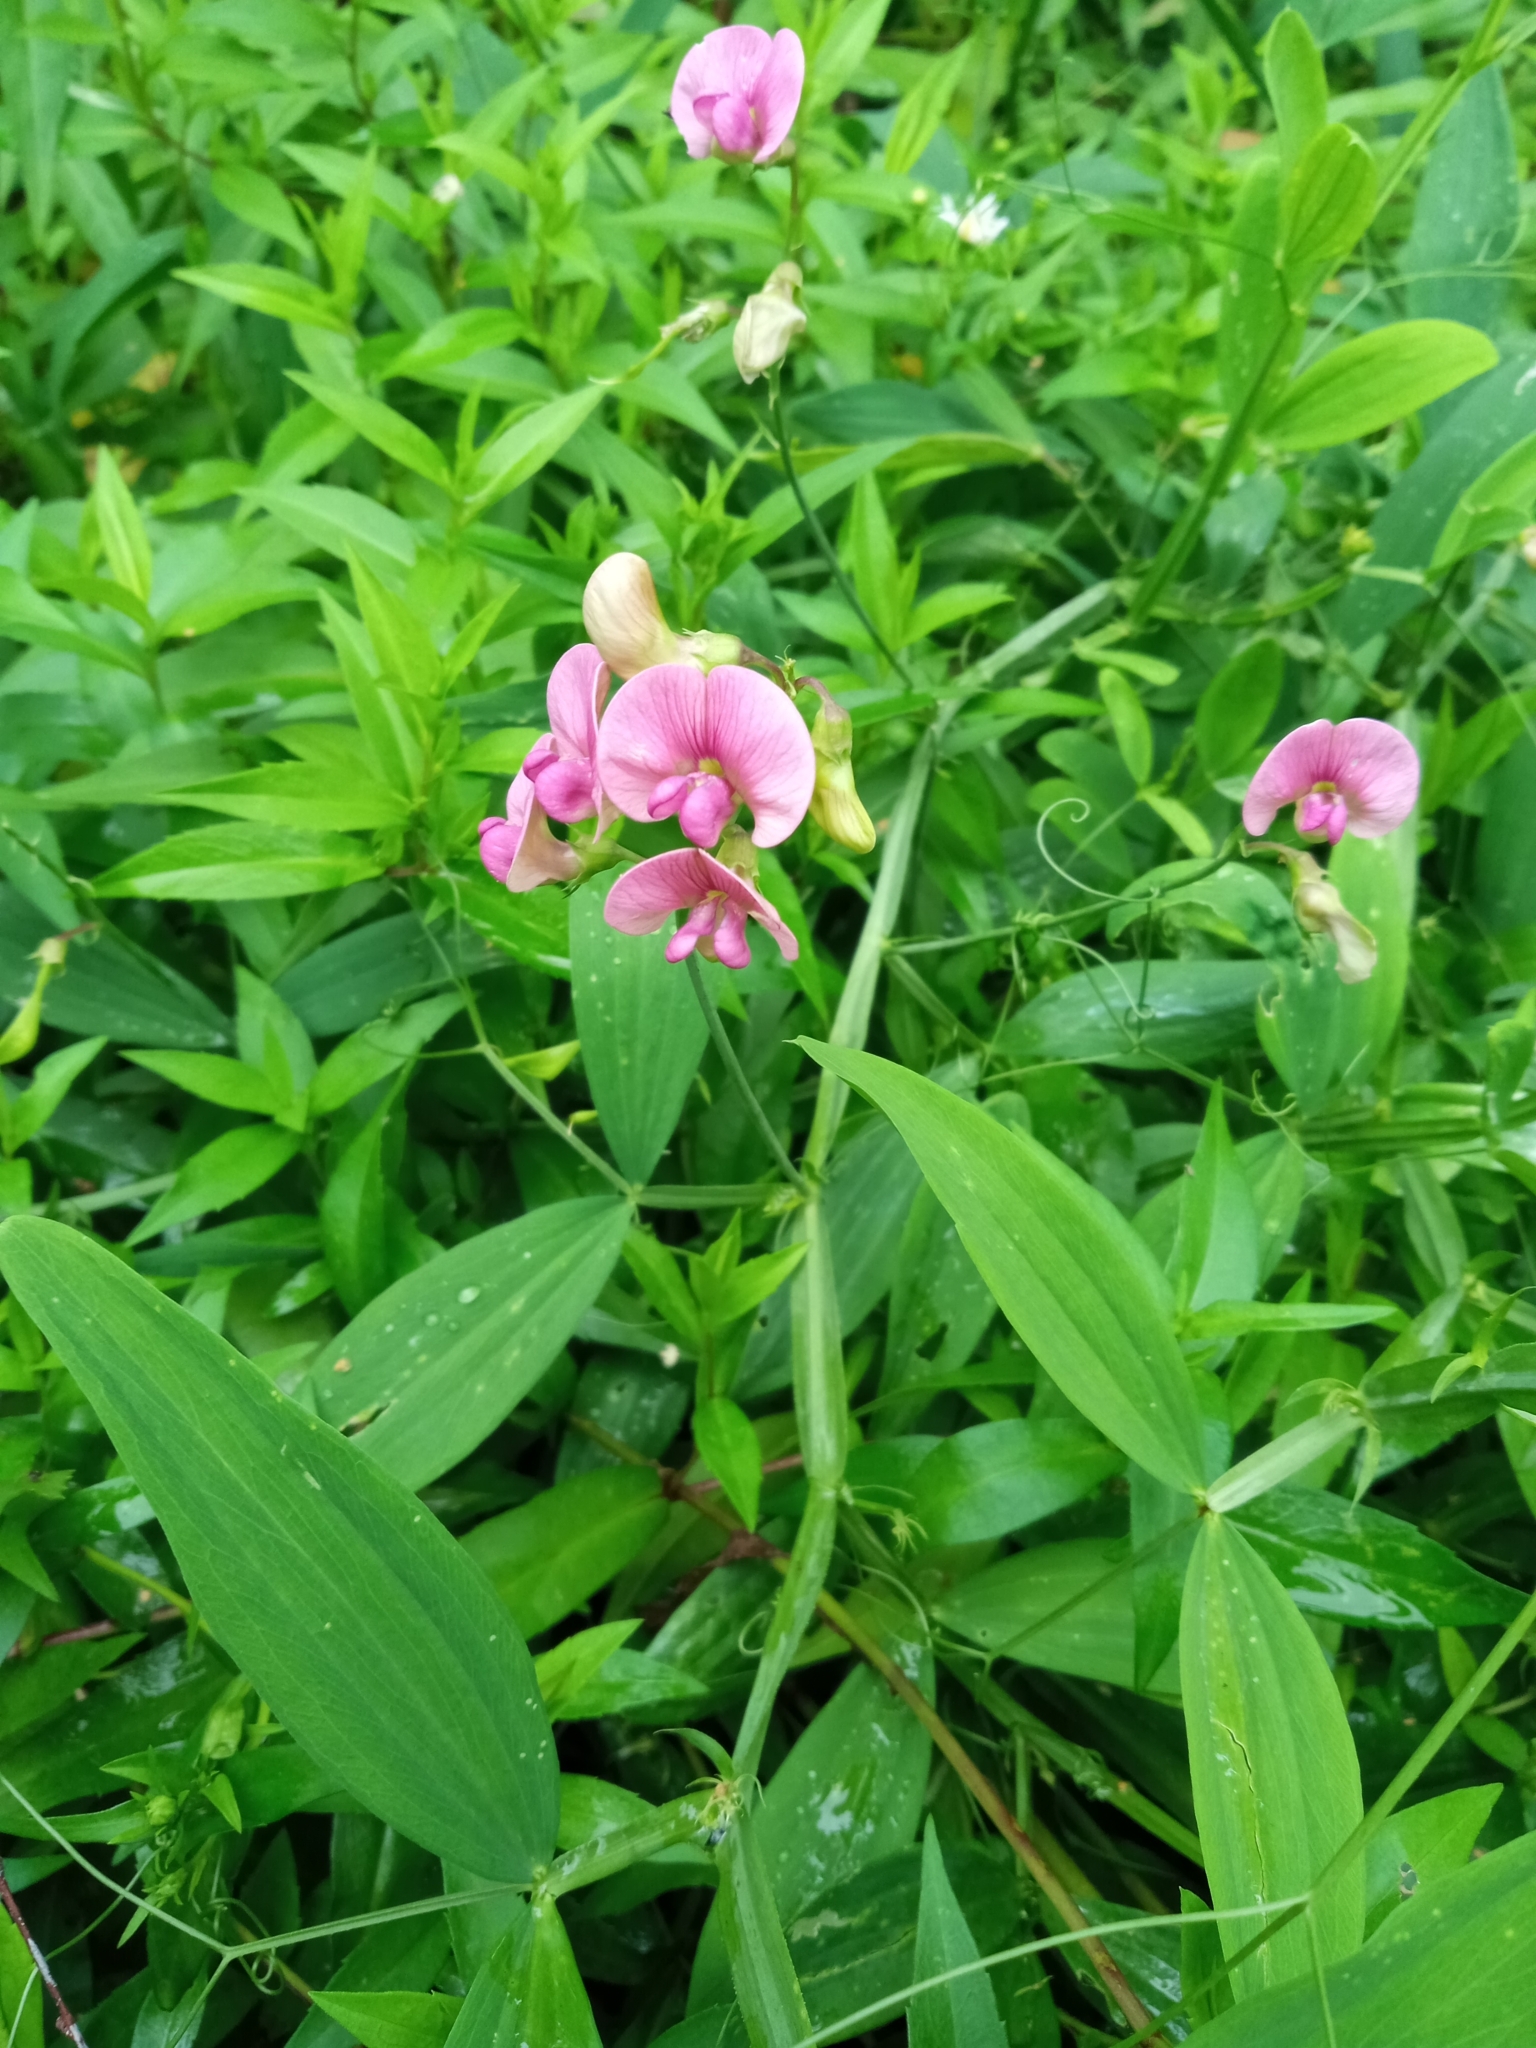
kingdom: Plantae
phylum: Tracheophyta
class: Magnoliopsida
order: Fabales
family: Fabaceae
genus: Lathyrus
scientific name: Lathyrus sylvestris
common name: Flat pea
